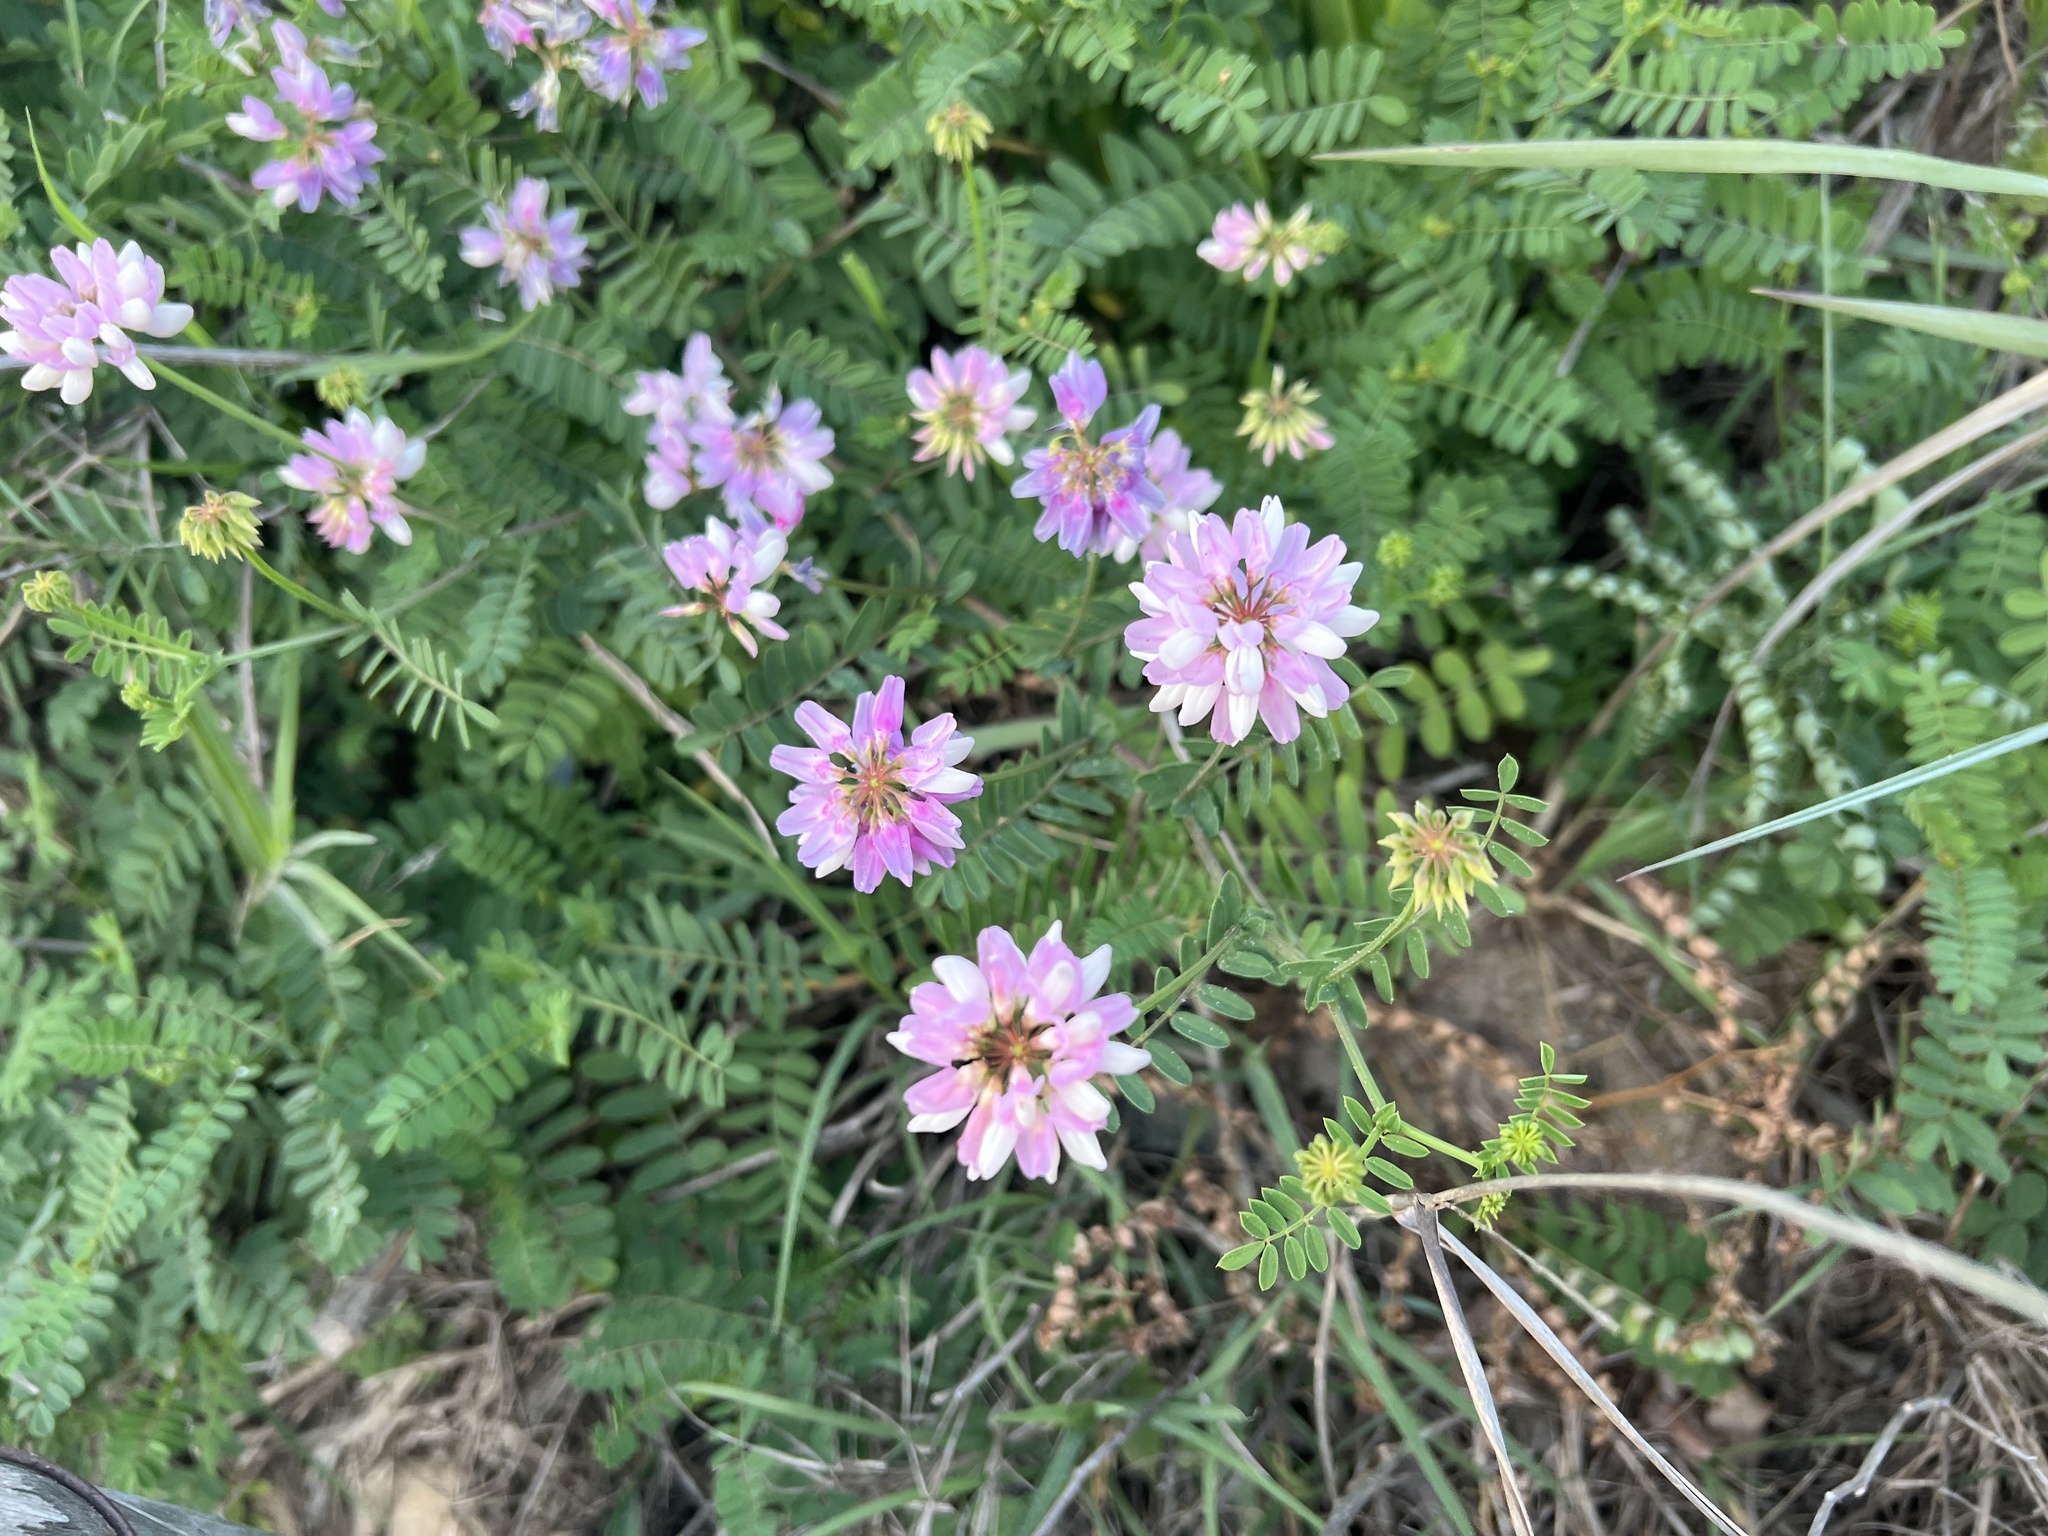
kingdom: Plantae
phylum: Tracheophyta
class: Magnoliopsida
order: Fabales
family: Fabaceae
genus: Coronilla
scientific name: Coronilla varia
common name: Crownvetch
